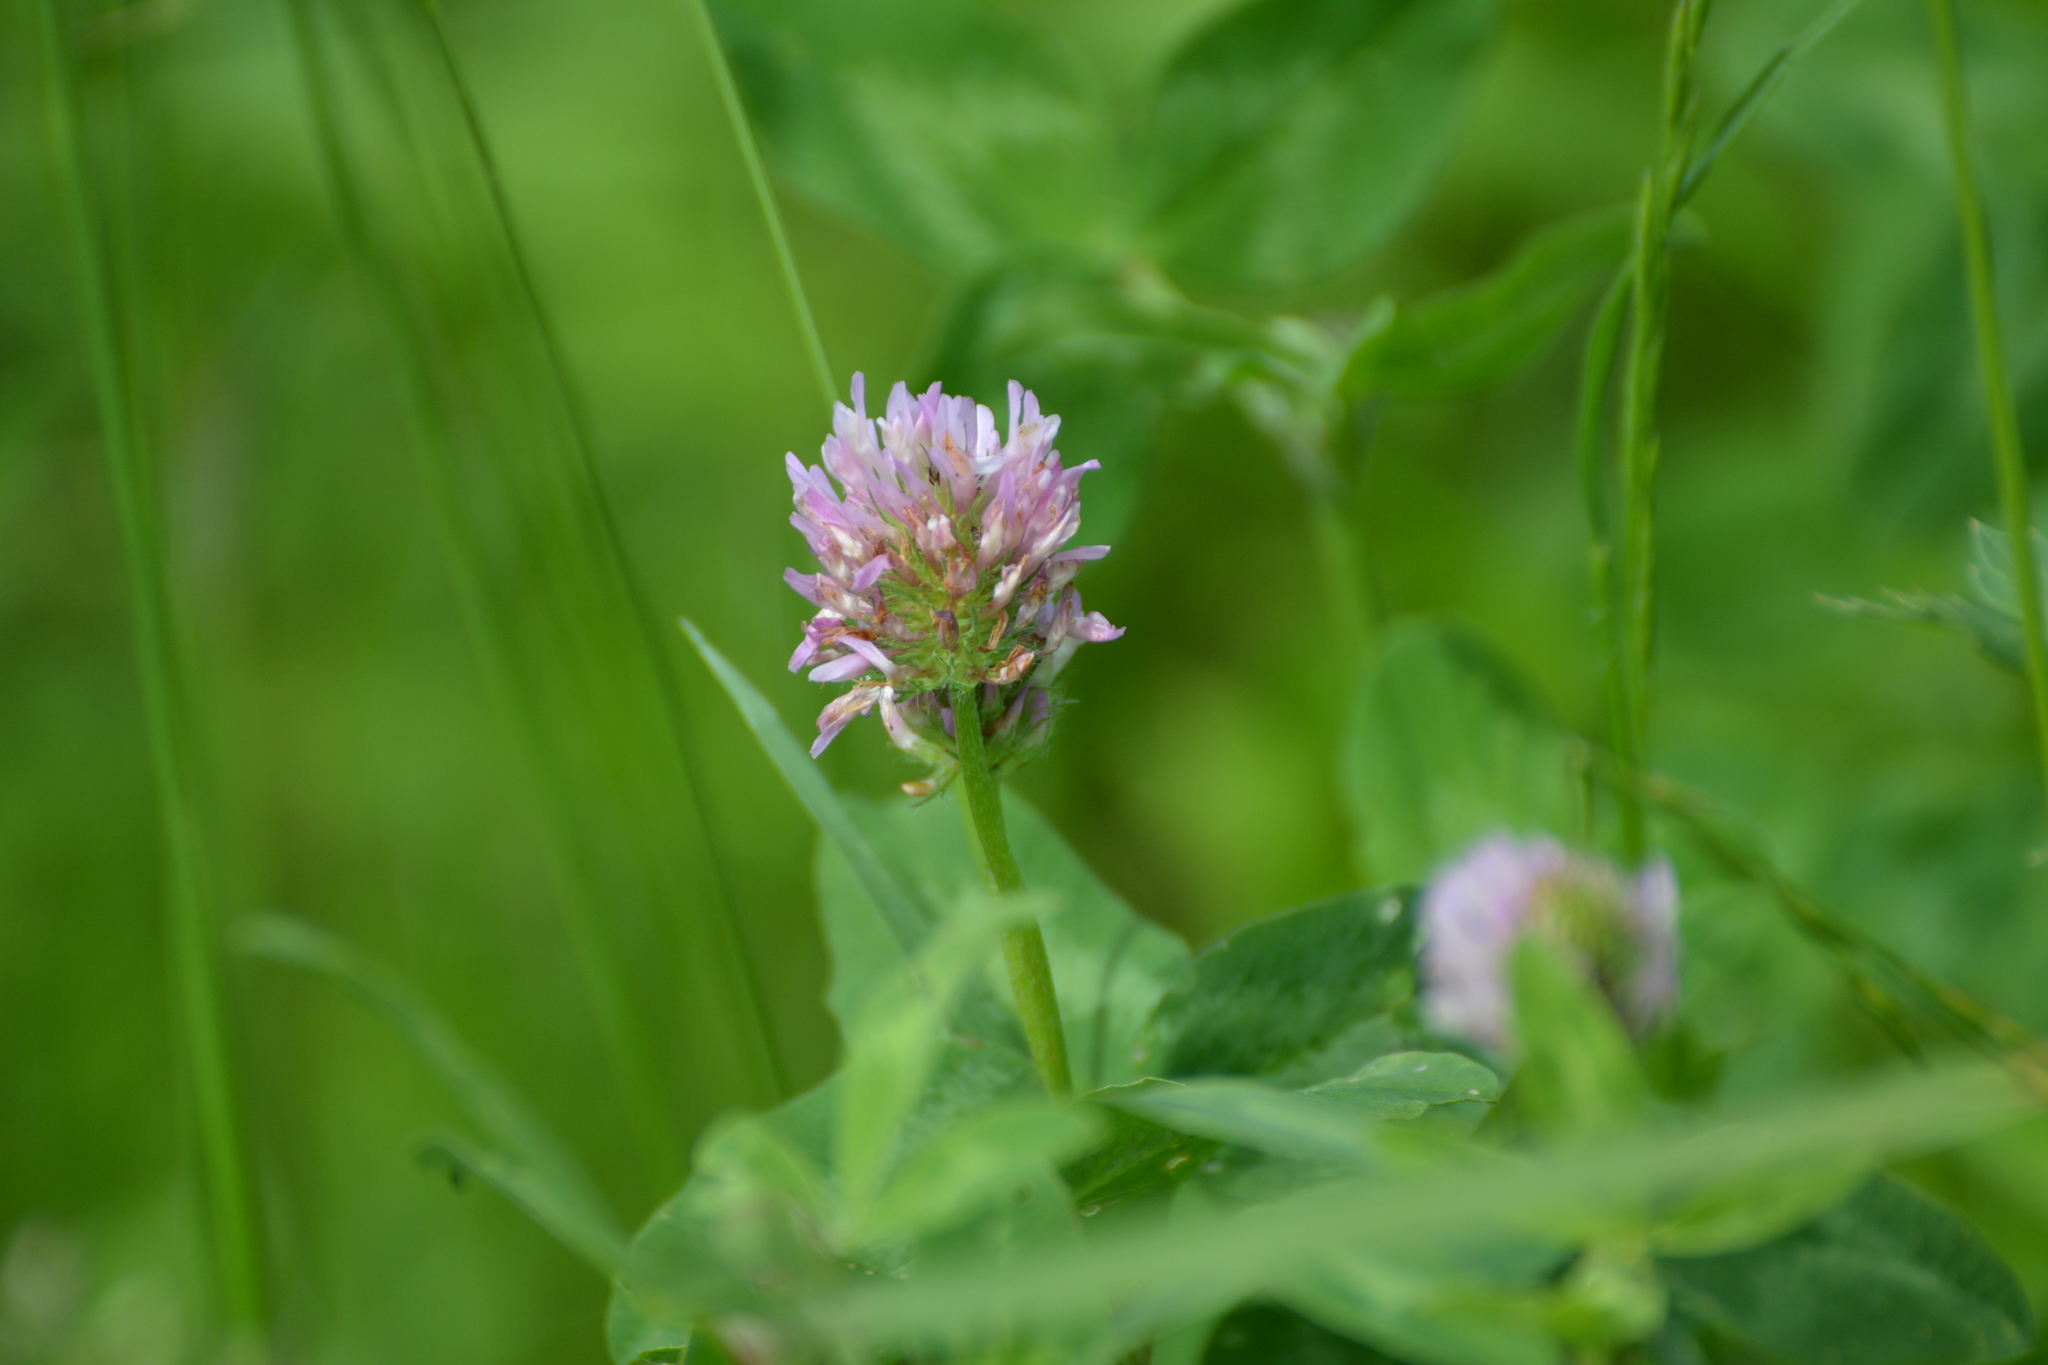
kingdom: Plantae
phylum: Tracheophyta
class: Magnoliopsida
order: Fabales
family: Fabaceae
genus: Trifolium
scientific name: Trifolium pratense
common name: Red clover
